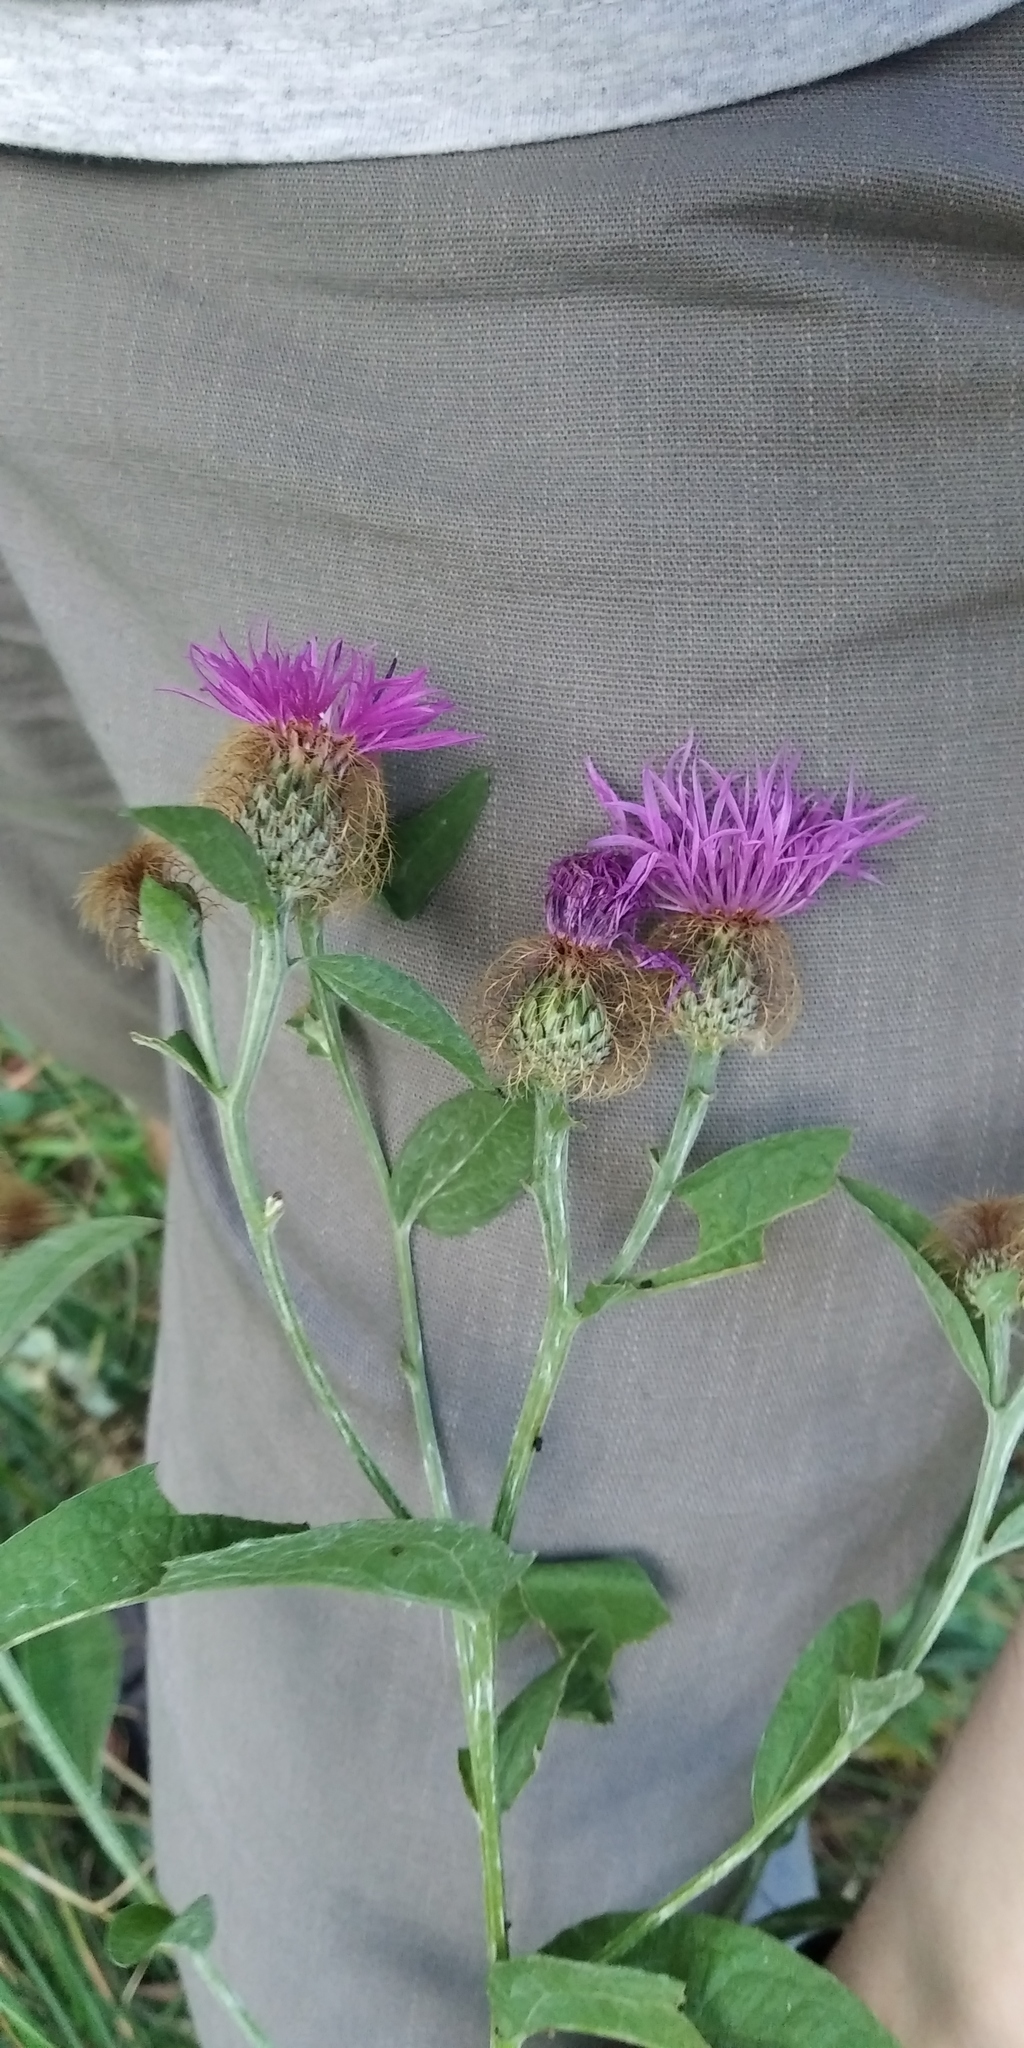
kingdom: Plantae
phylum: Tracheophyta
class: Magnoliopsida
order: Asterales
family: Asteraceae
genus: Centaurea
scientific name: Centaurea pseudophrygia
